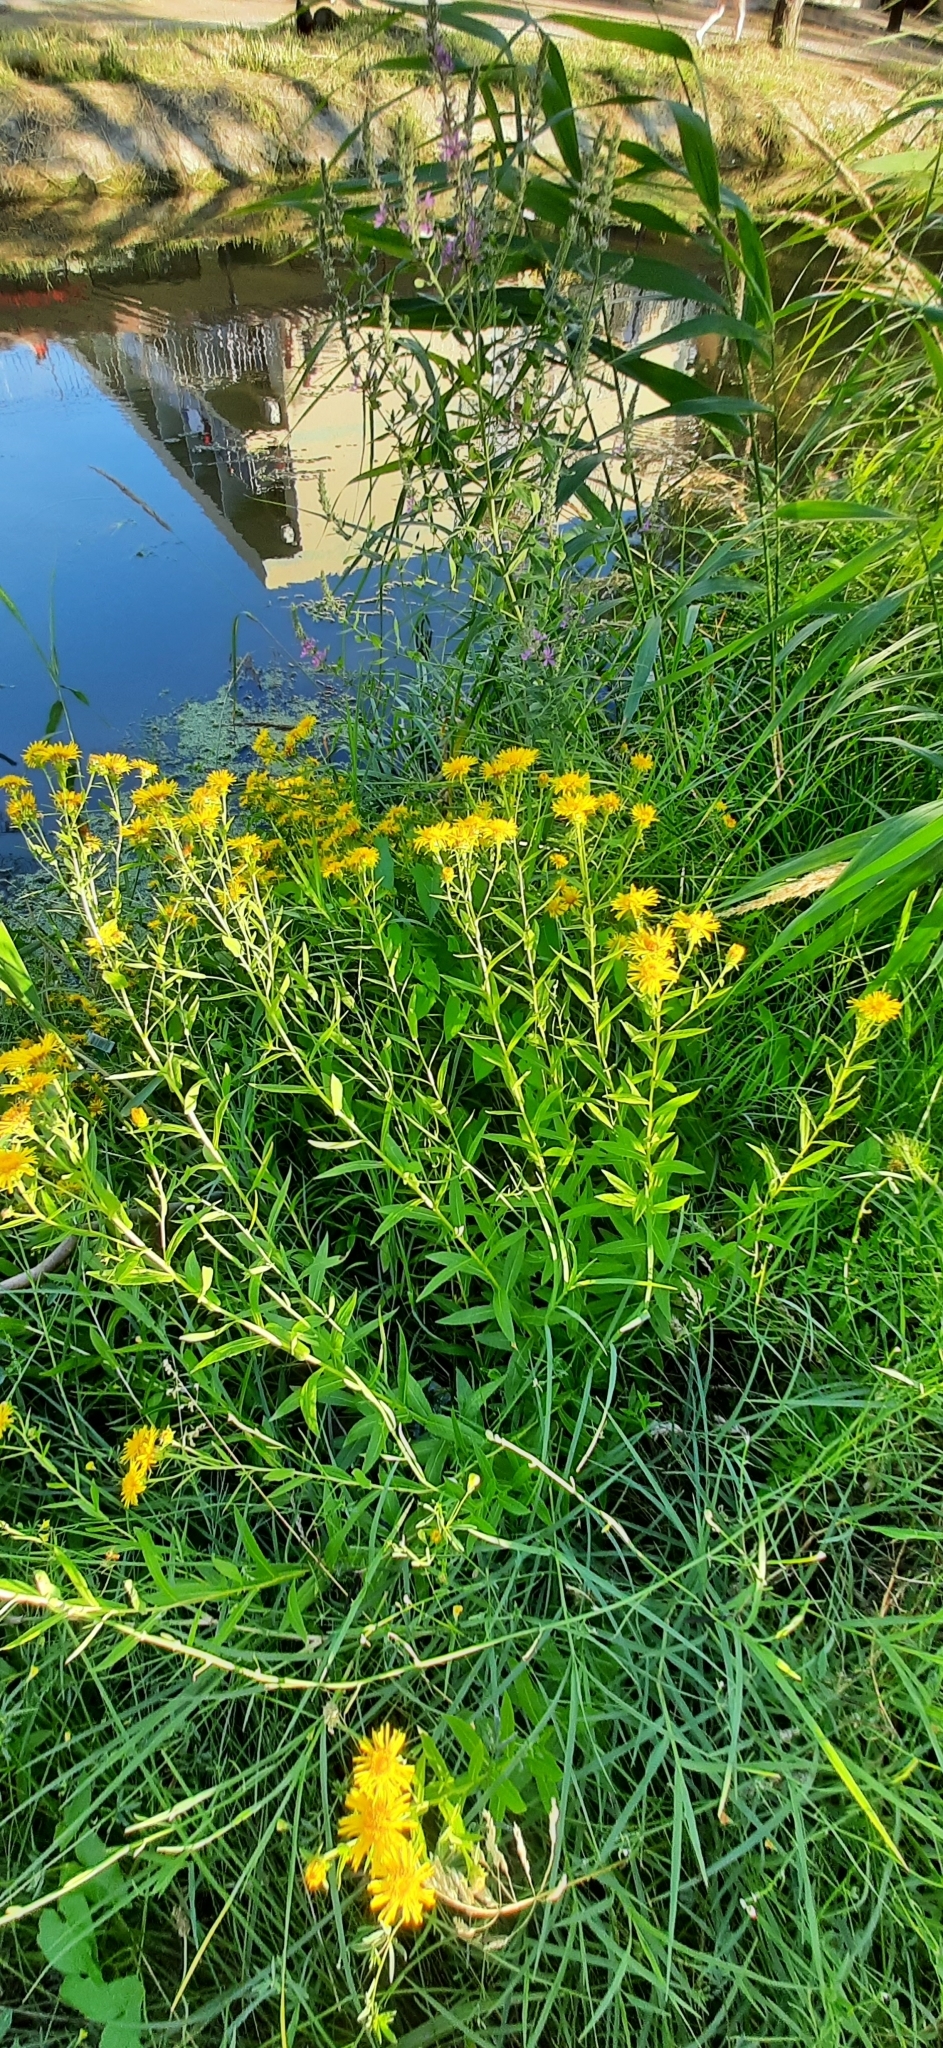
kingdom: Plantae
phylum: Tracheophyta
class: Magnoliopsida
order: Asterales
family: Asteraceae
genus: Pentanema
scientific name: Pentanema asperum
